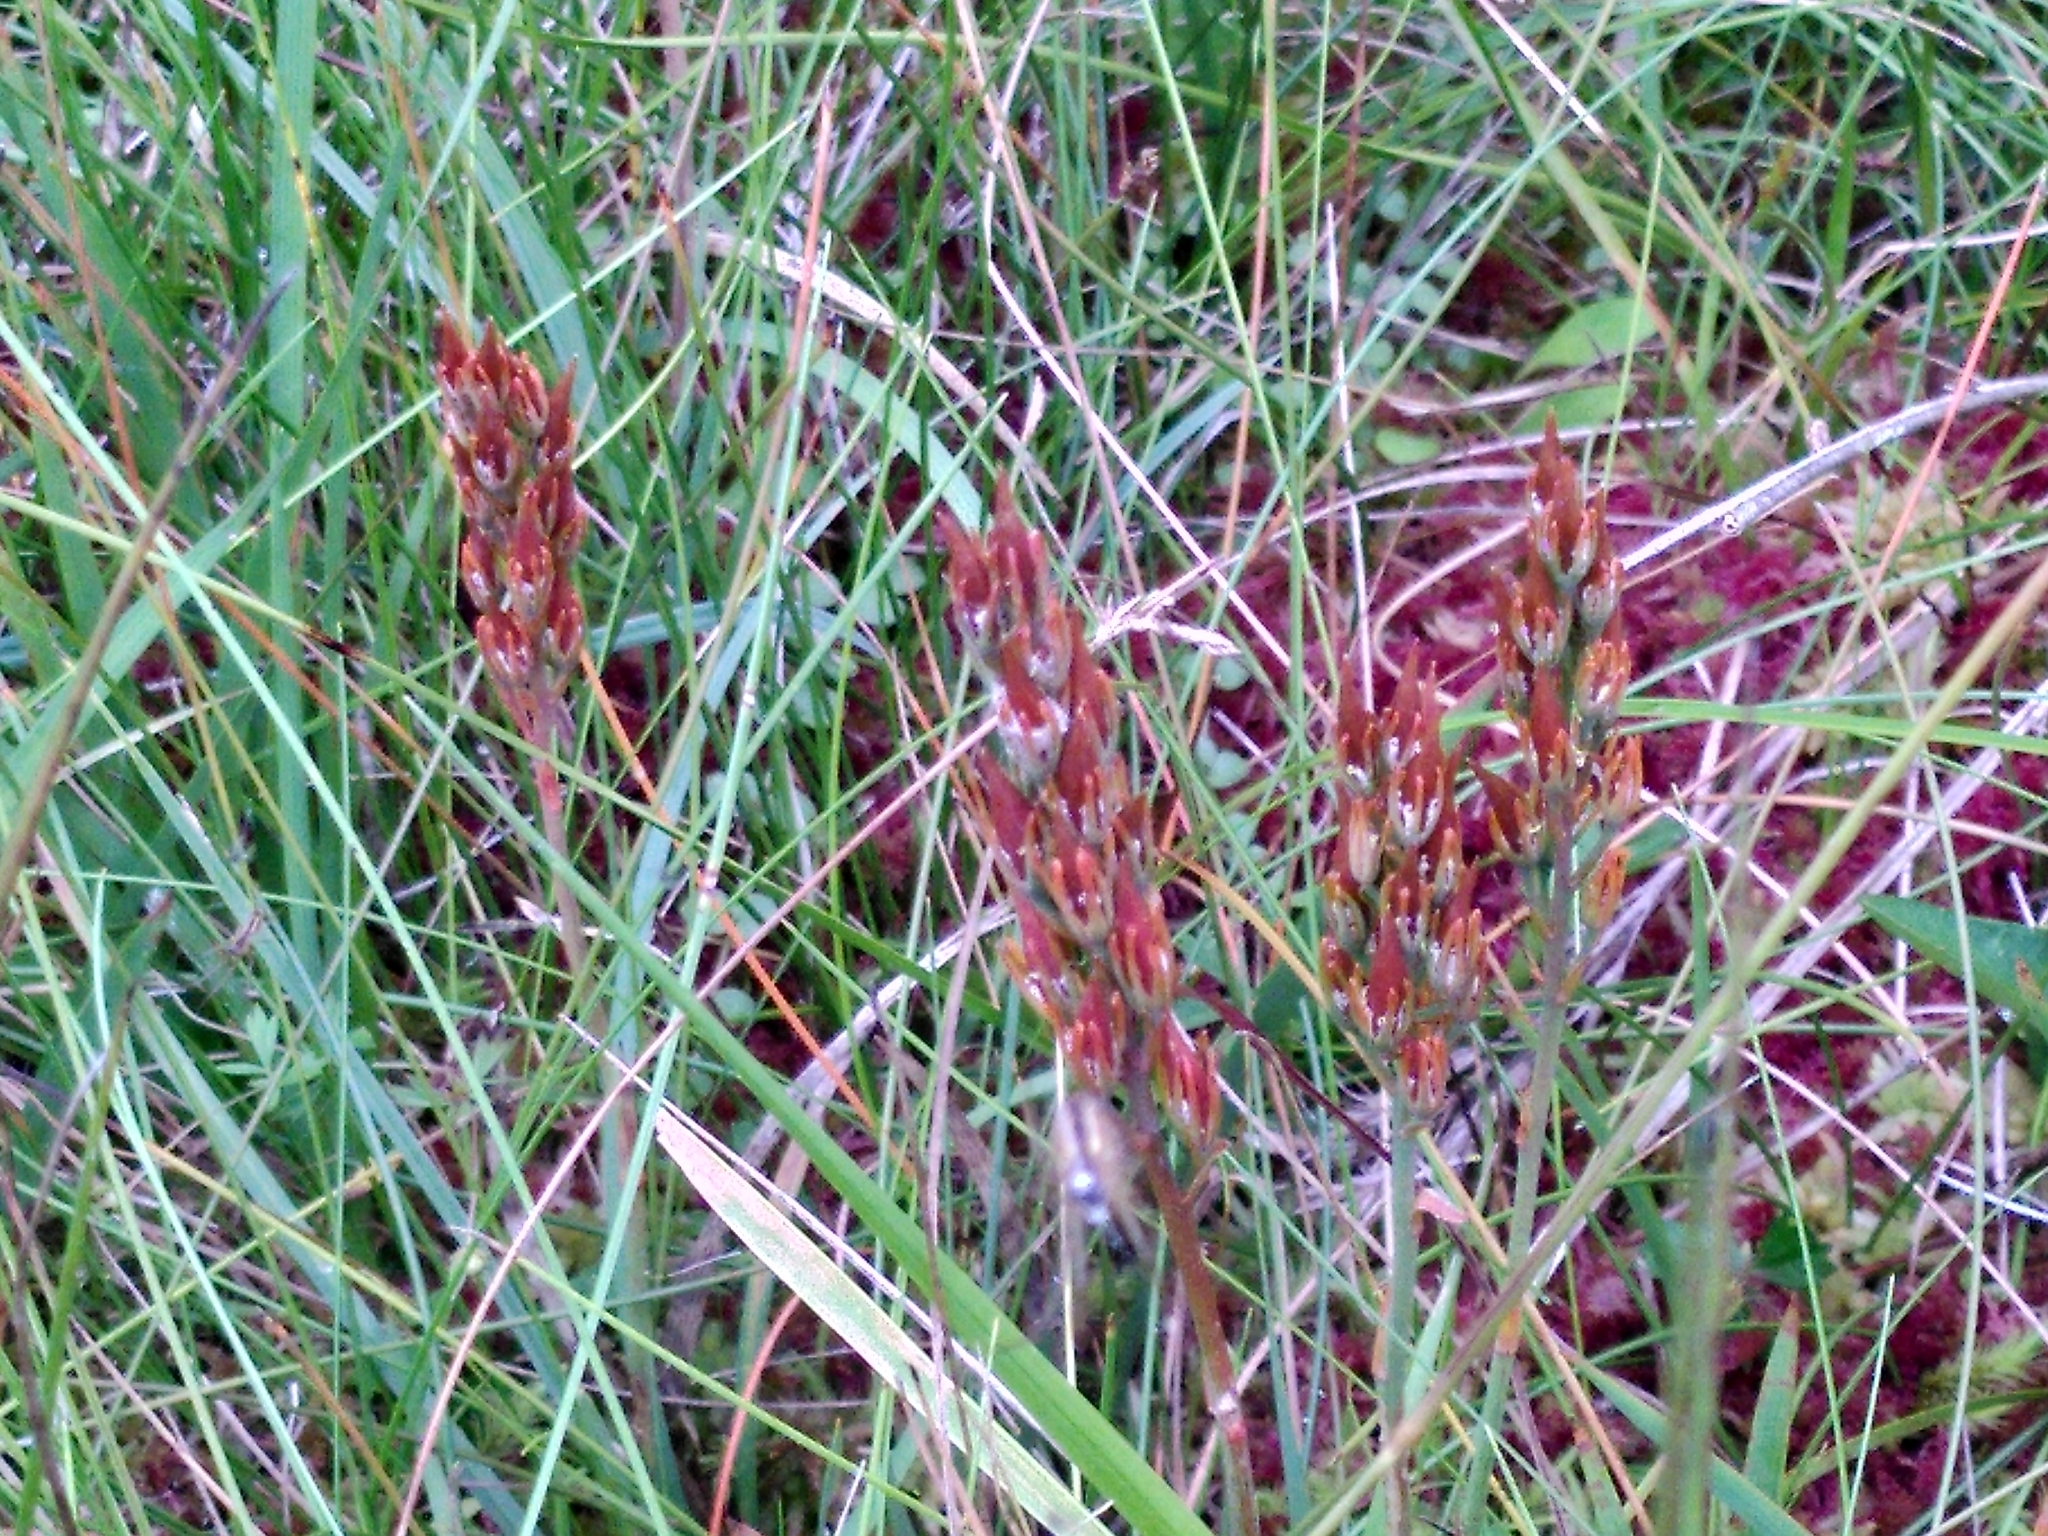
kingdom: Plantae
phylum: Tracheophyta
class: Liliopsida
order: Dioscoreales
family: Nartheciaceae
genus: Narthecium
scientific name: Narthecium ossifragum
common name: Bog asphodel
